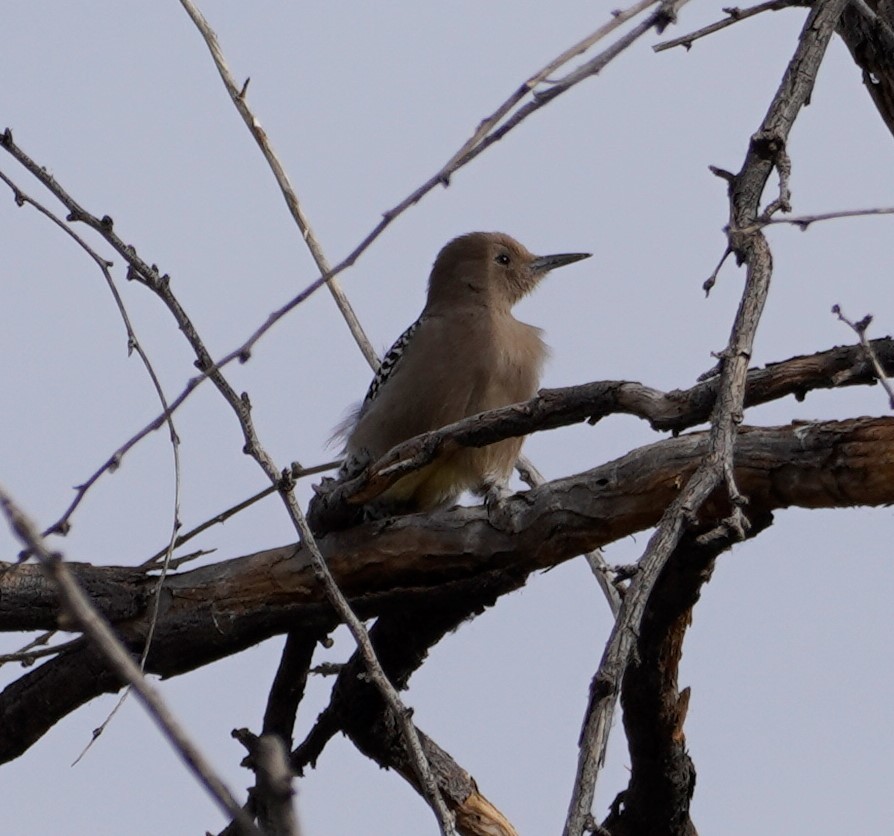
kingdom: Animalia
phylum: Chordata
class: Aves
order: Piciformes
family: Picidae
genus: Melanerpes
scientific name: Melanerpes uropygialis
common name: Gila woodpecker
